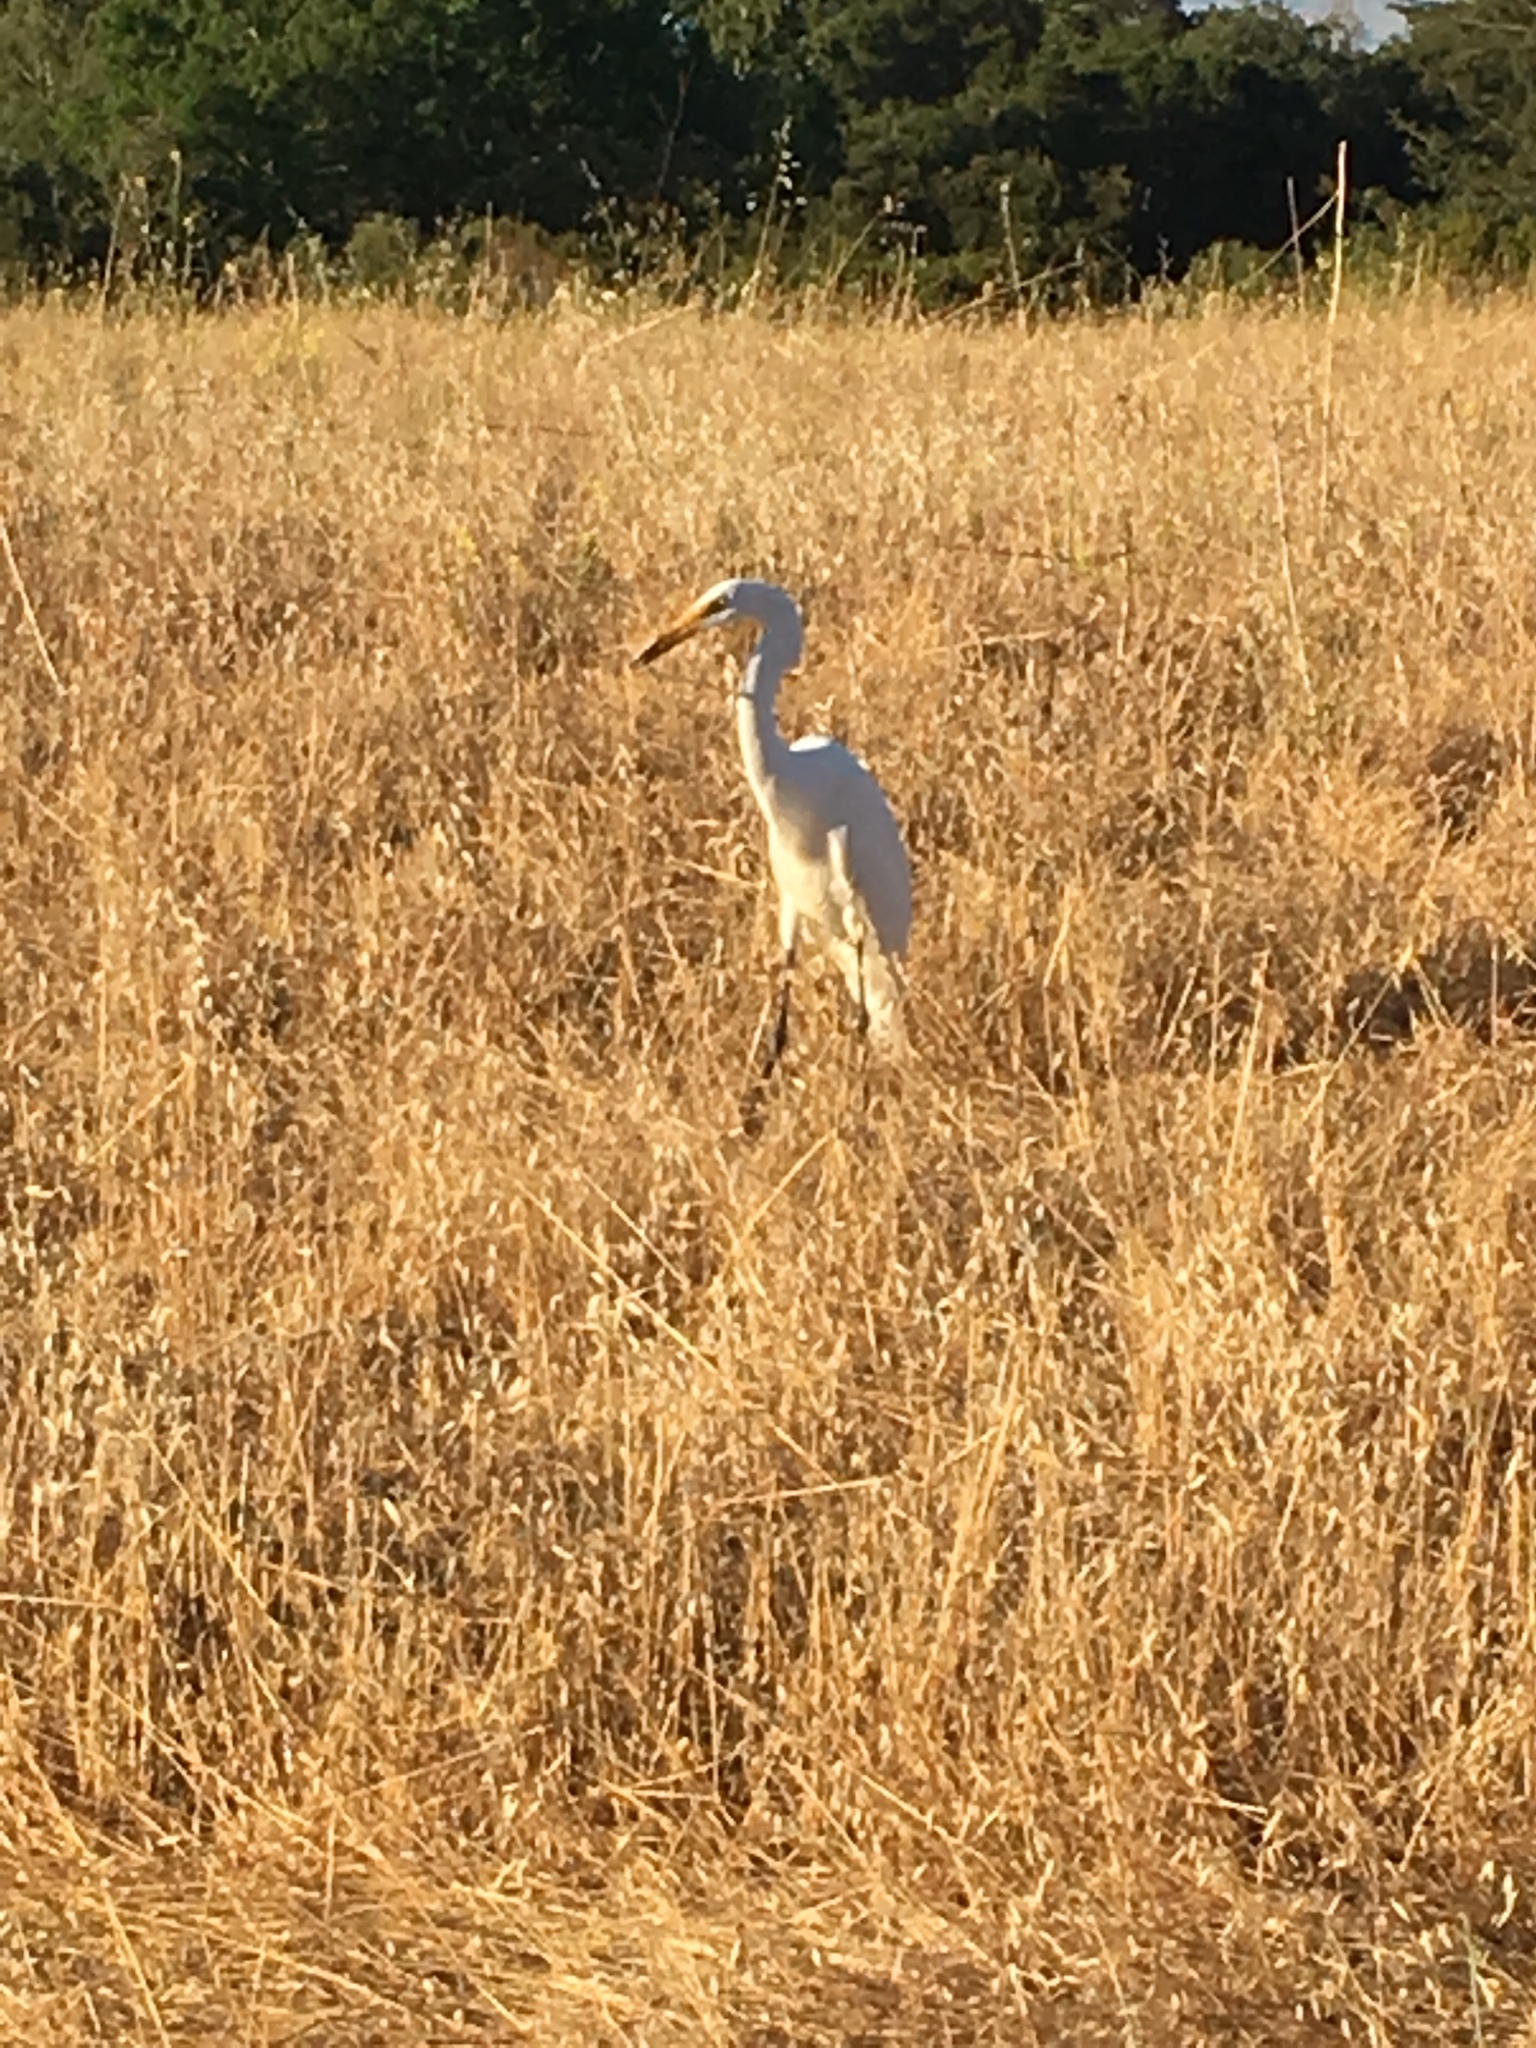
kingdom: Animalia
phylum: Chordata
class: Aves
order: Pelecaniformes
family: Ardeidae
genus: Ardea
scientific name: Ardea alba
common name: Great egret
